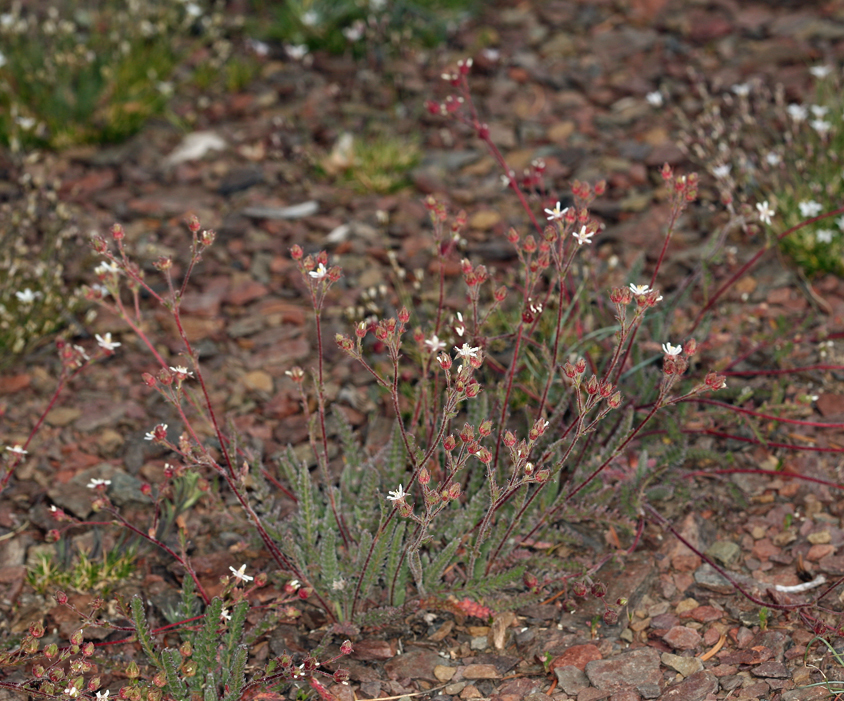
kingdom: Plantae
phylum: Tracheophyta
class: Magnoliopsida
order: Rosales
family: Rosaceae
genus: Potentilla
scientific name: Potentilla hispidula
